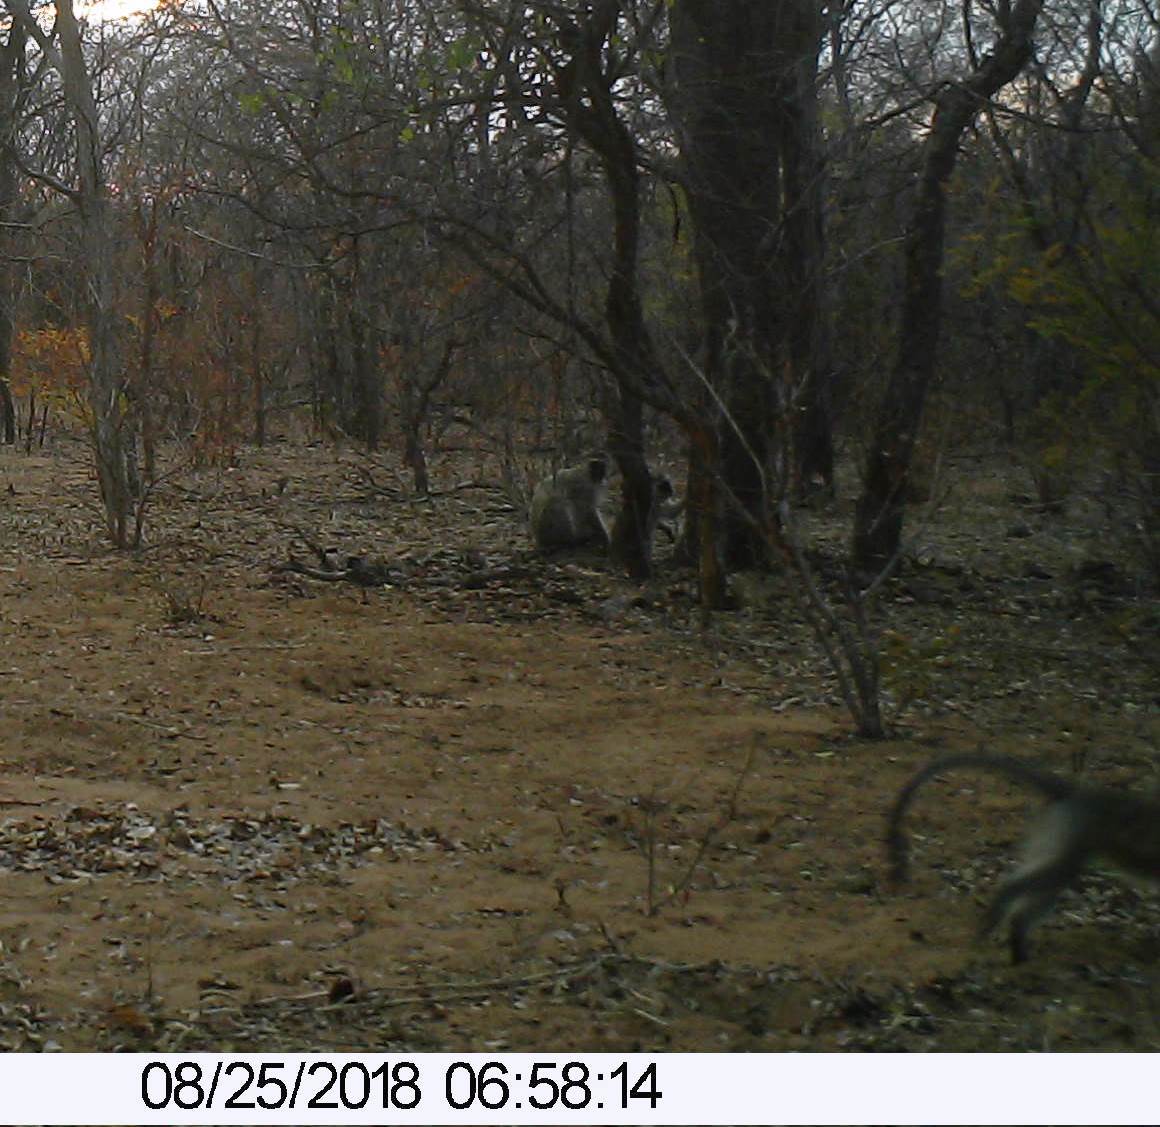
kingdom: Animalia
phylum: Chordata
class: Mammalia
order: Primates
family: Cercopithecidae
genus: Chlorocebus
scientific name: Chlorocebus pygerythrus
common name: Vervet monkey
